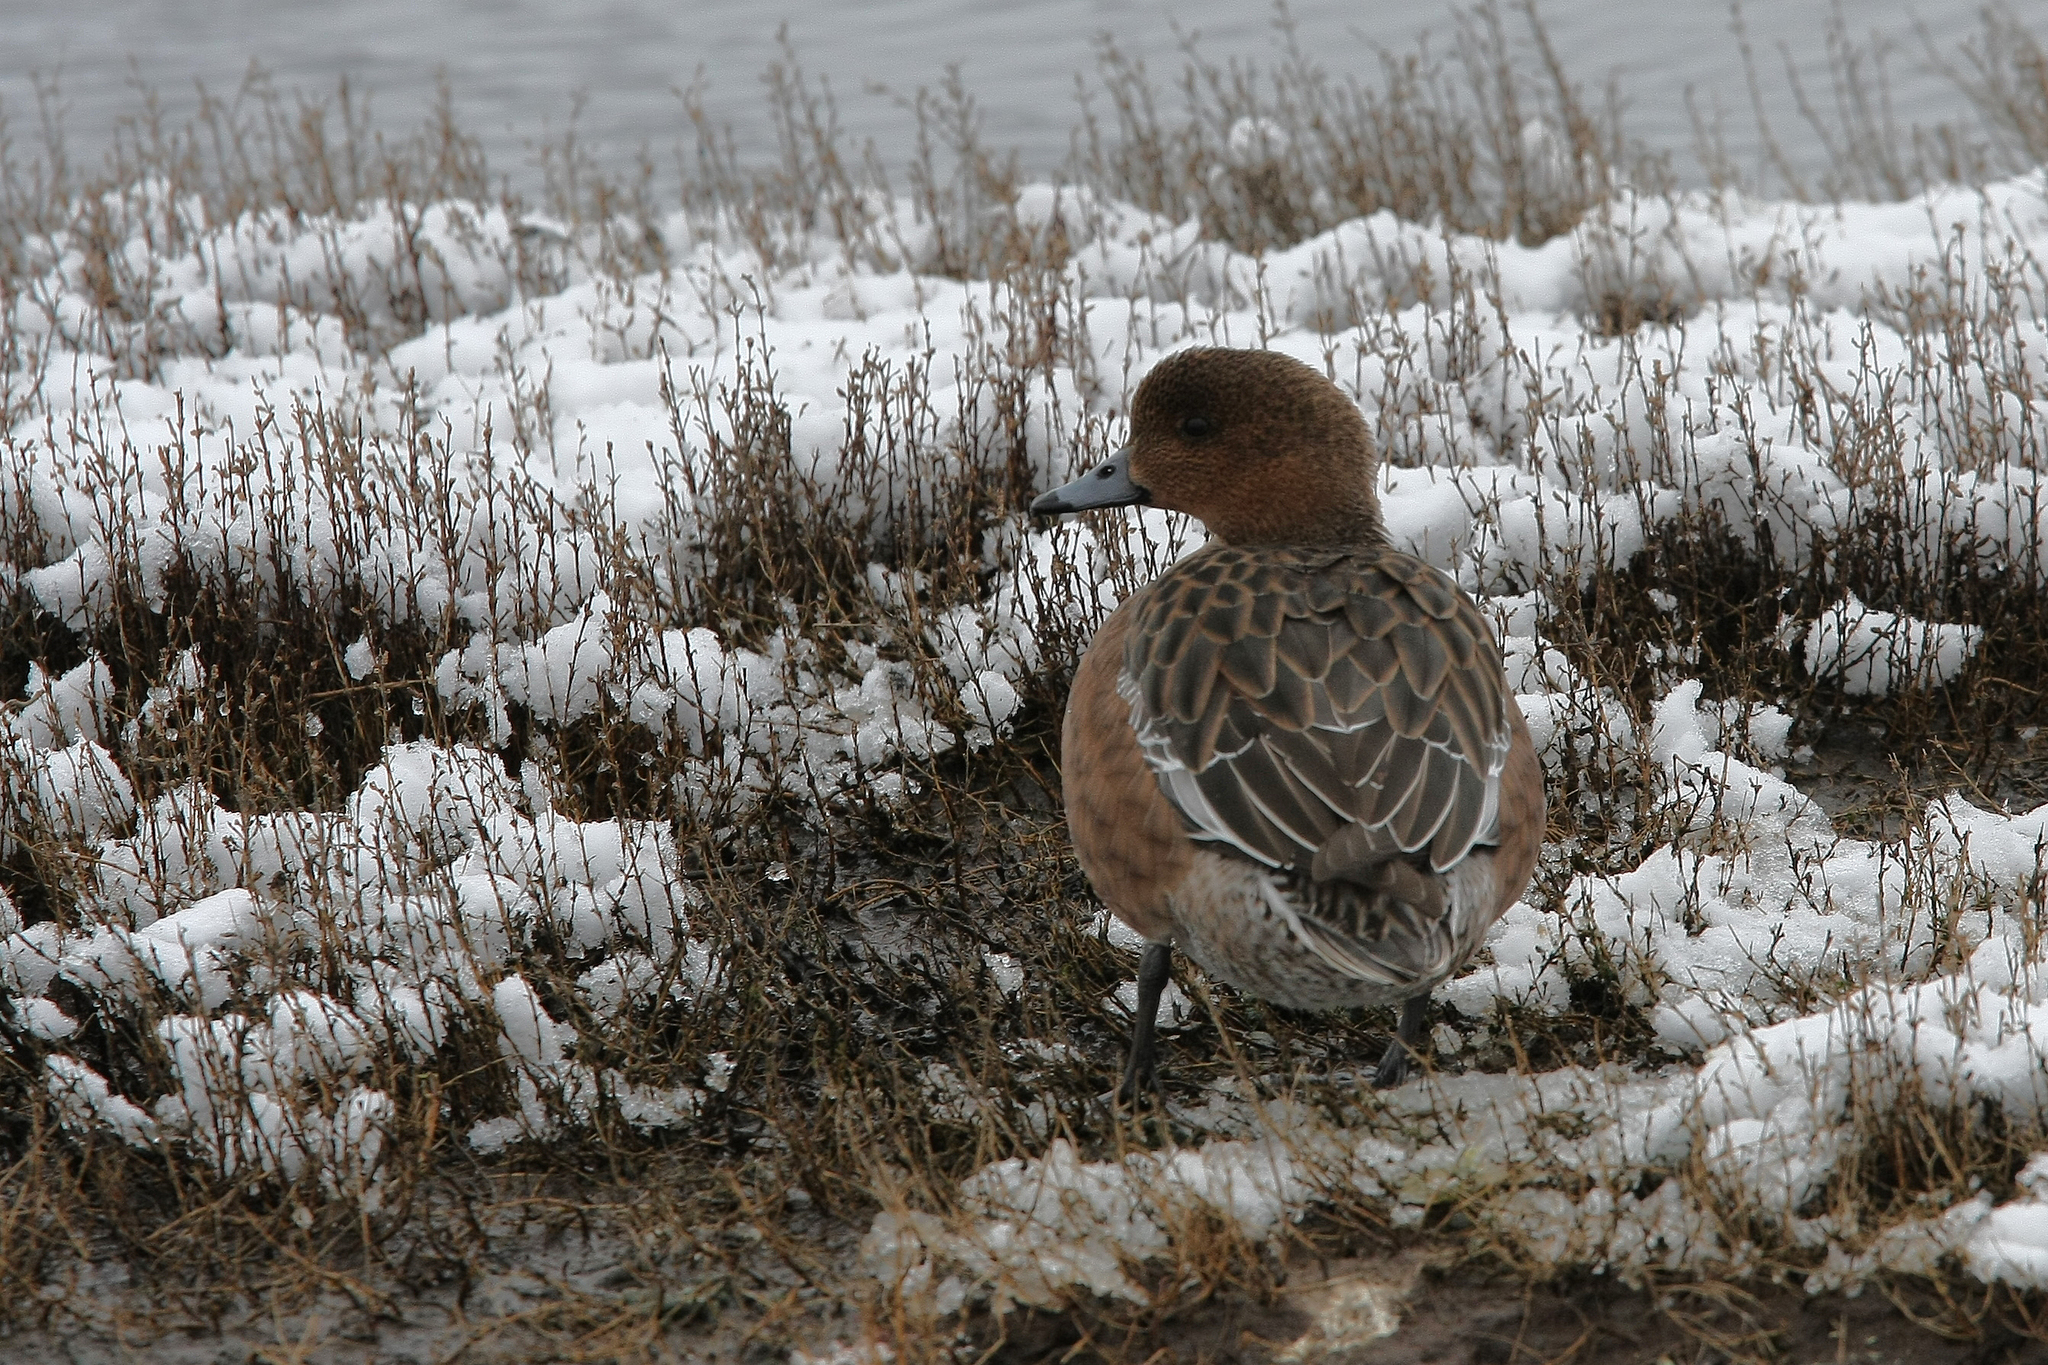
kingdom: Animalia
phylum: Chordata
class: Aves
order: Anseriformes
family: Anatidae
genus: Mareca
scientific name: Mareca penelope
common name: Eurasian wigeon
